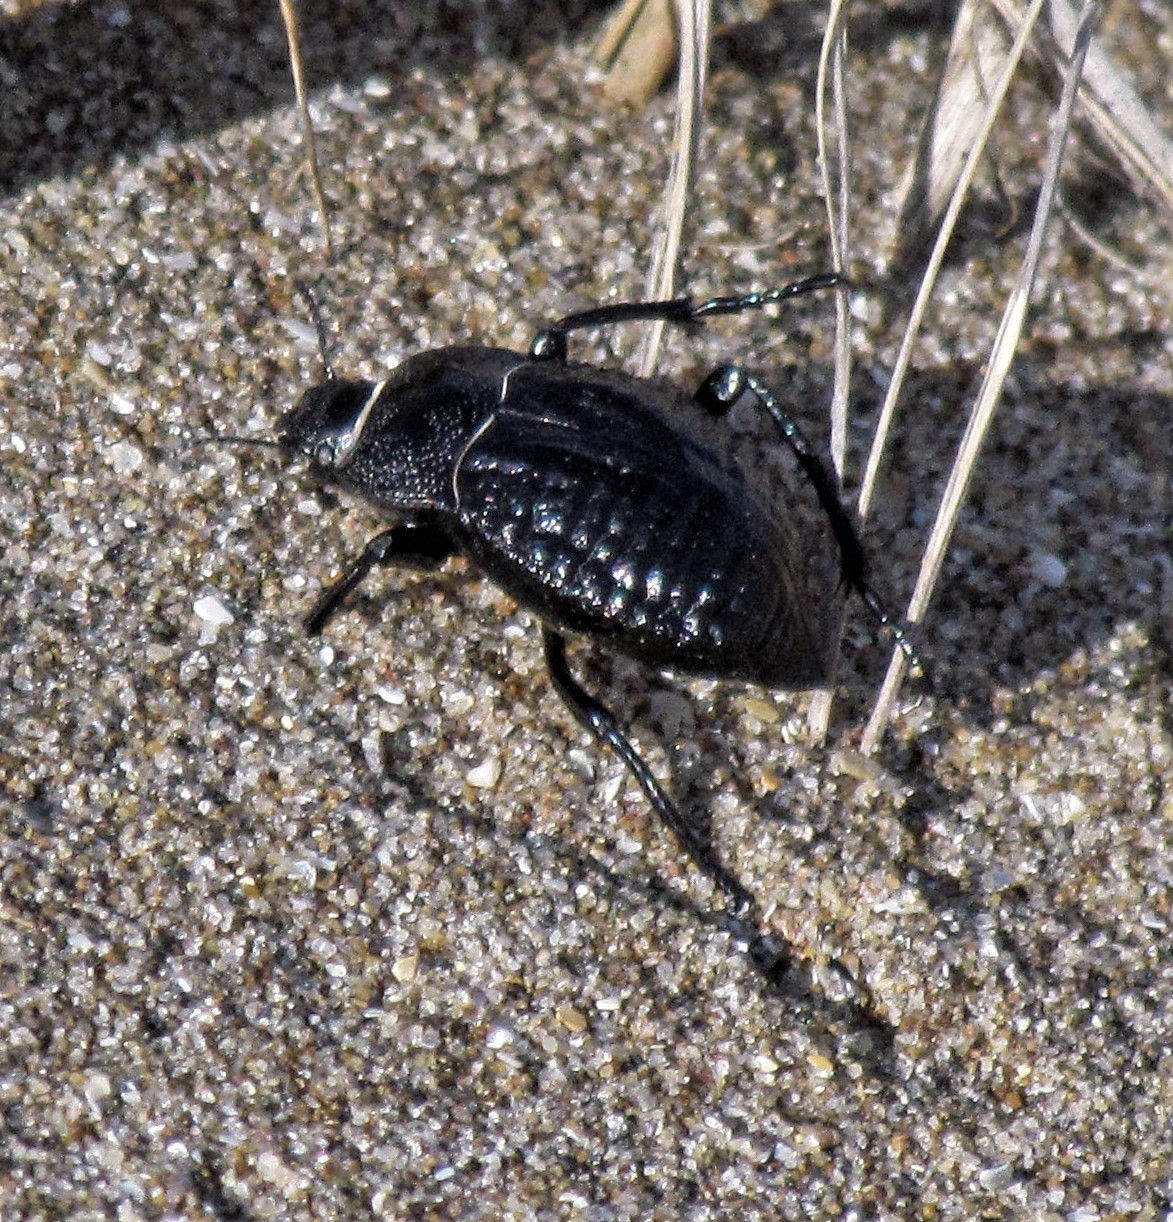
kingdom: Animalia
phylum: Arthropoda
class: Insecta
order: Coleoptera
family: Tenebrionidae
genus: Nyctelia
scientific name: Nyctelia
